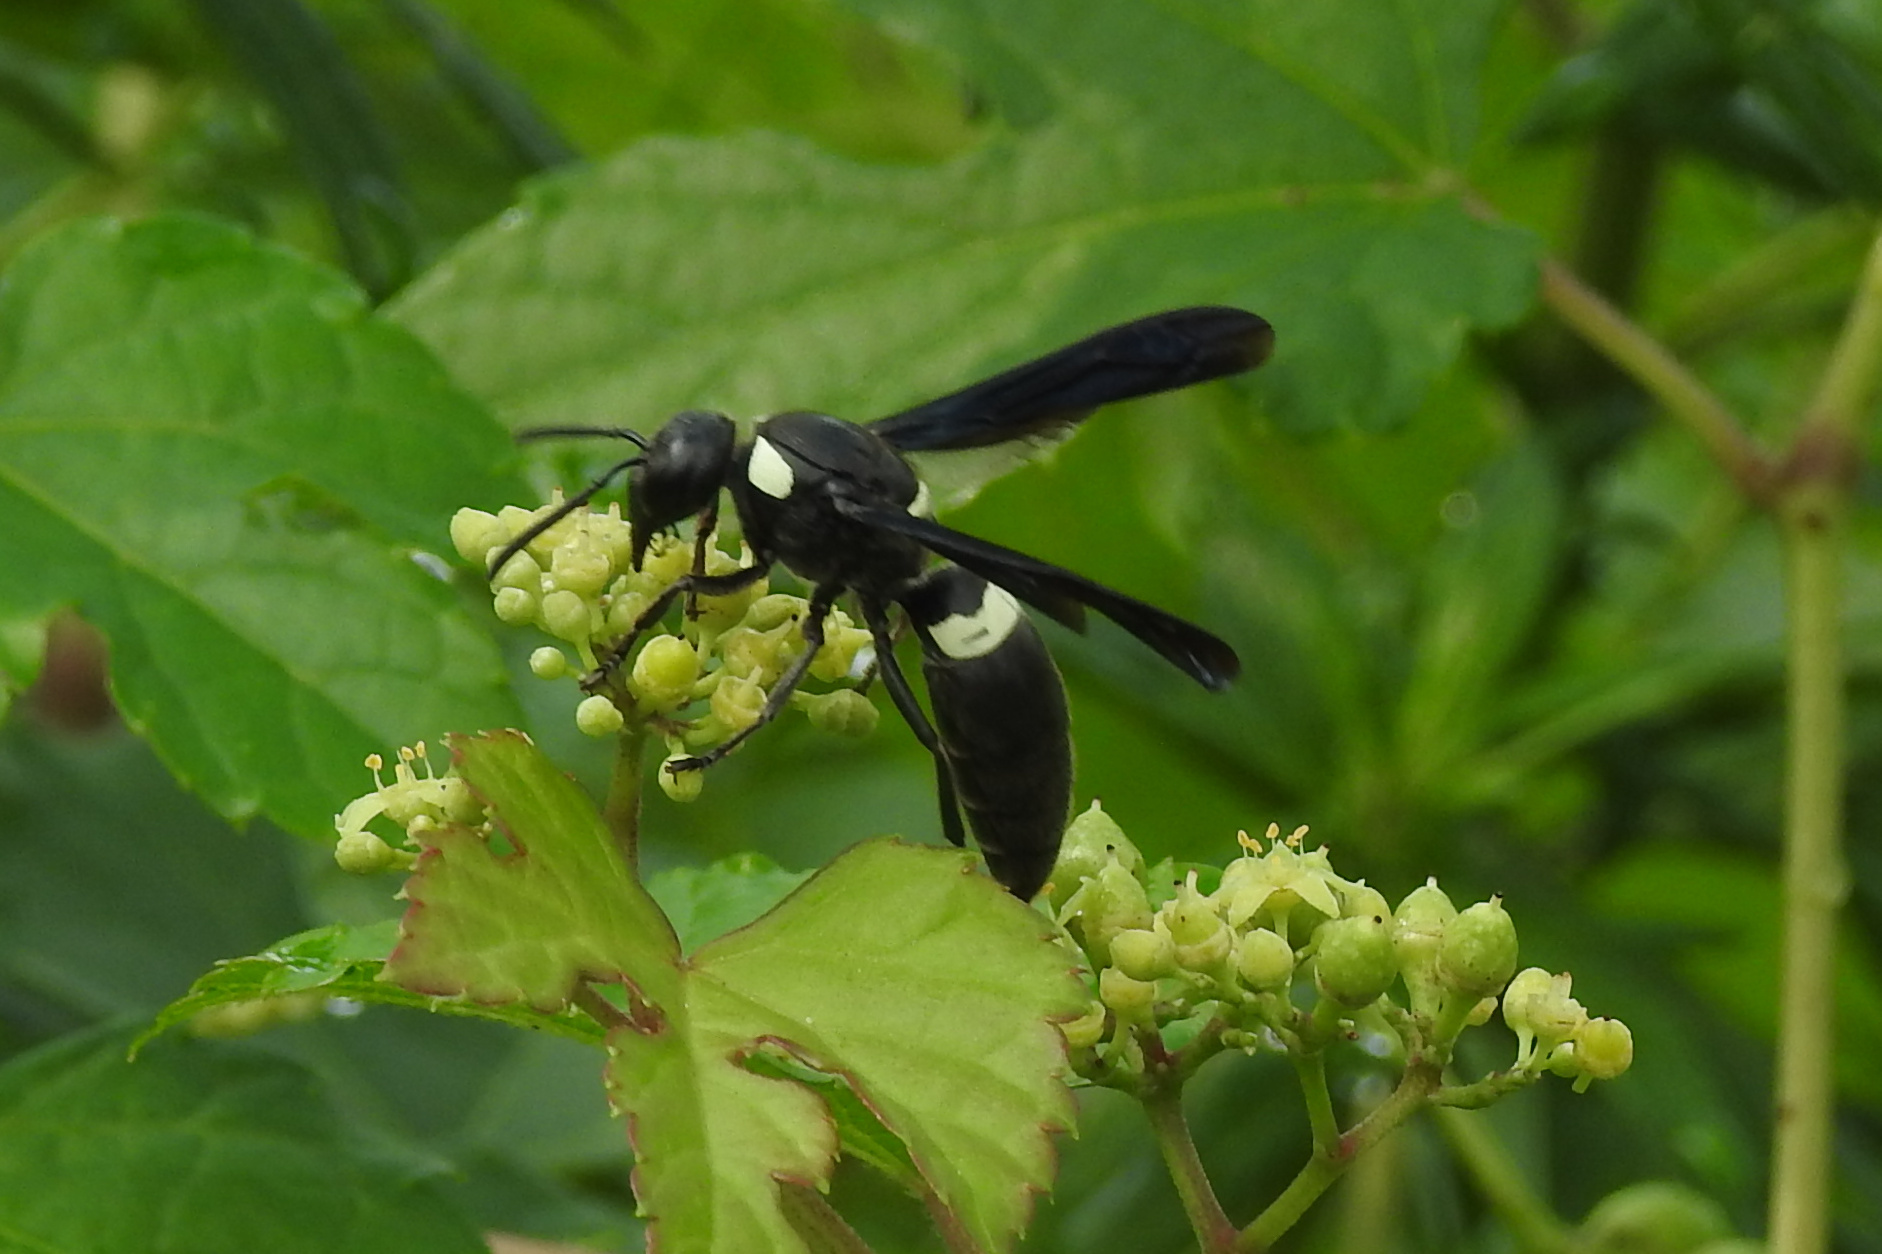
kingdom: Animalia
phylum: Arthropoda
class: Insecta
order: Hymenoptera
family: Eumenidae
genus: Monobia
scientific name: Monobia quadridens
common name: Four-toothed mason wasp
